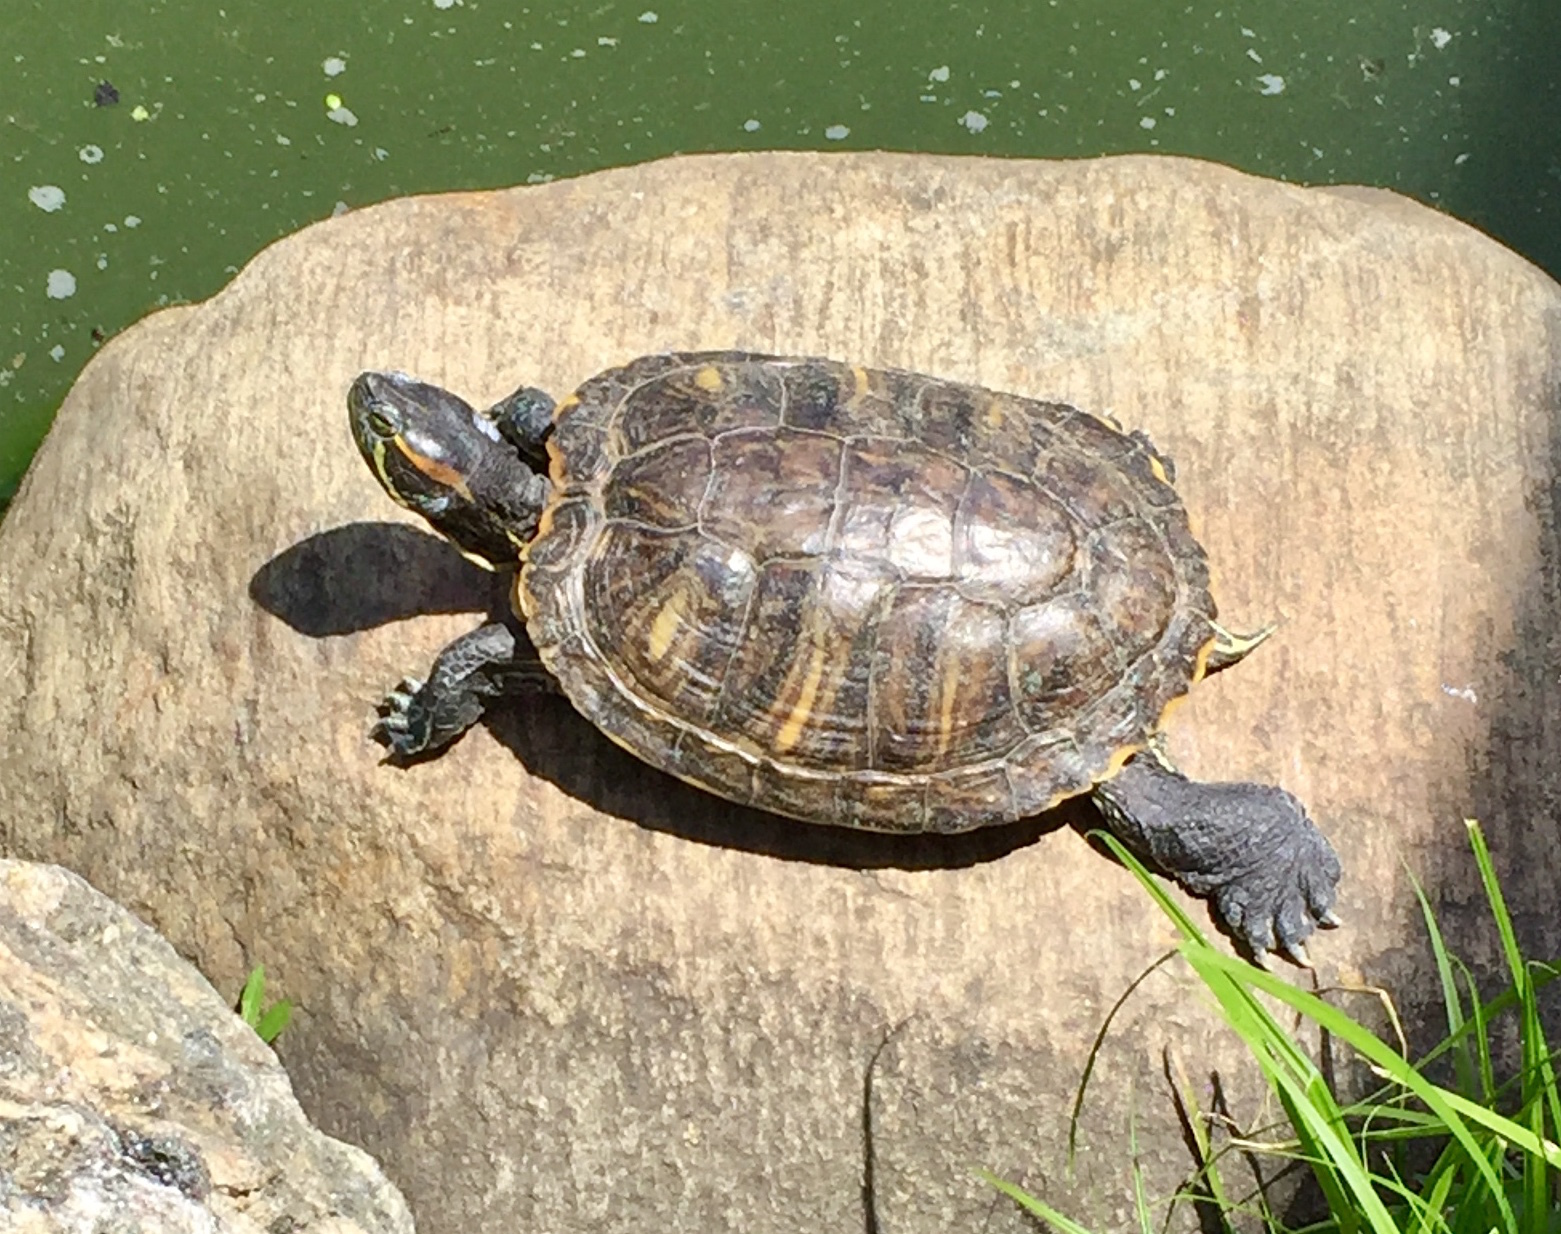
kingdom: Animalia
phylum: Chordata
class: Testudines
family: Emydidae
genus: Trachemys
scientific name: Trachemys scripta
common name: Slider
